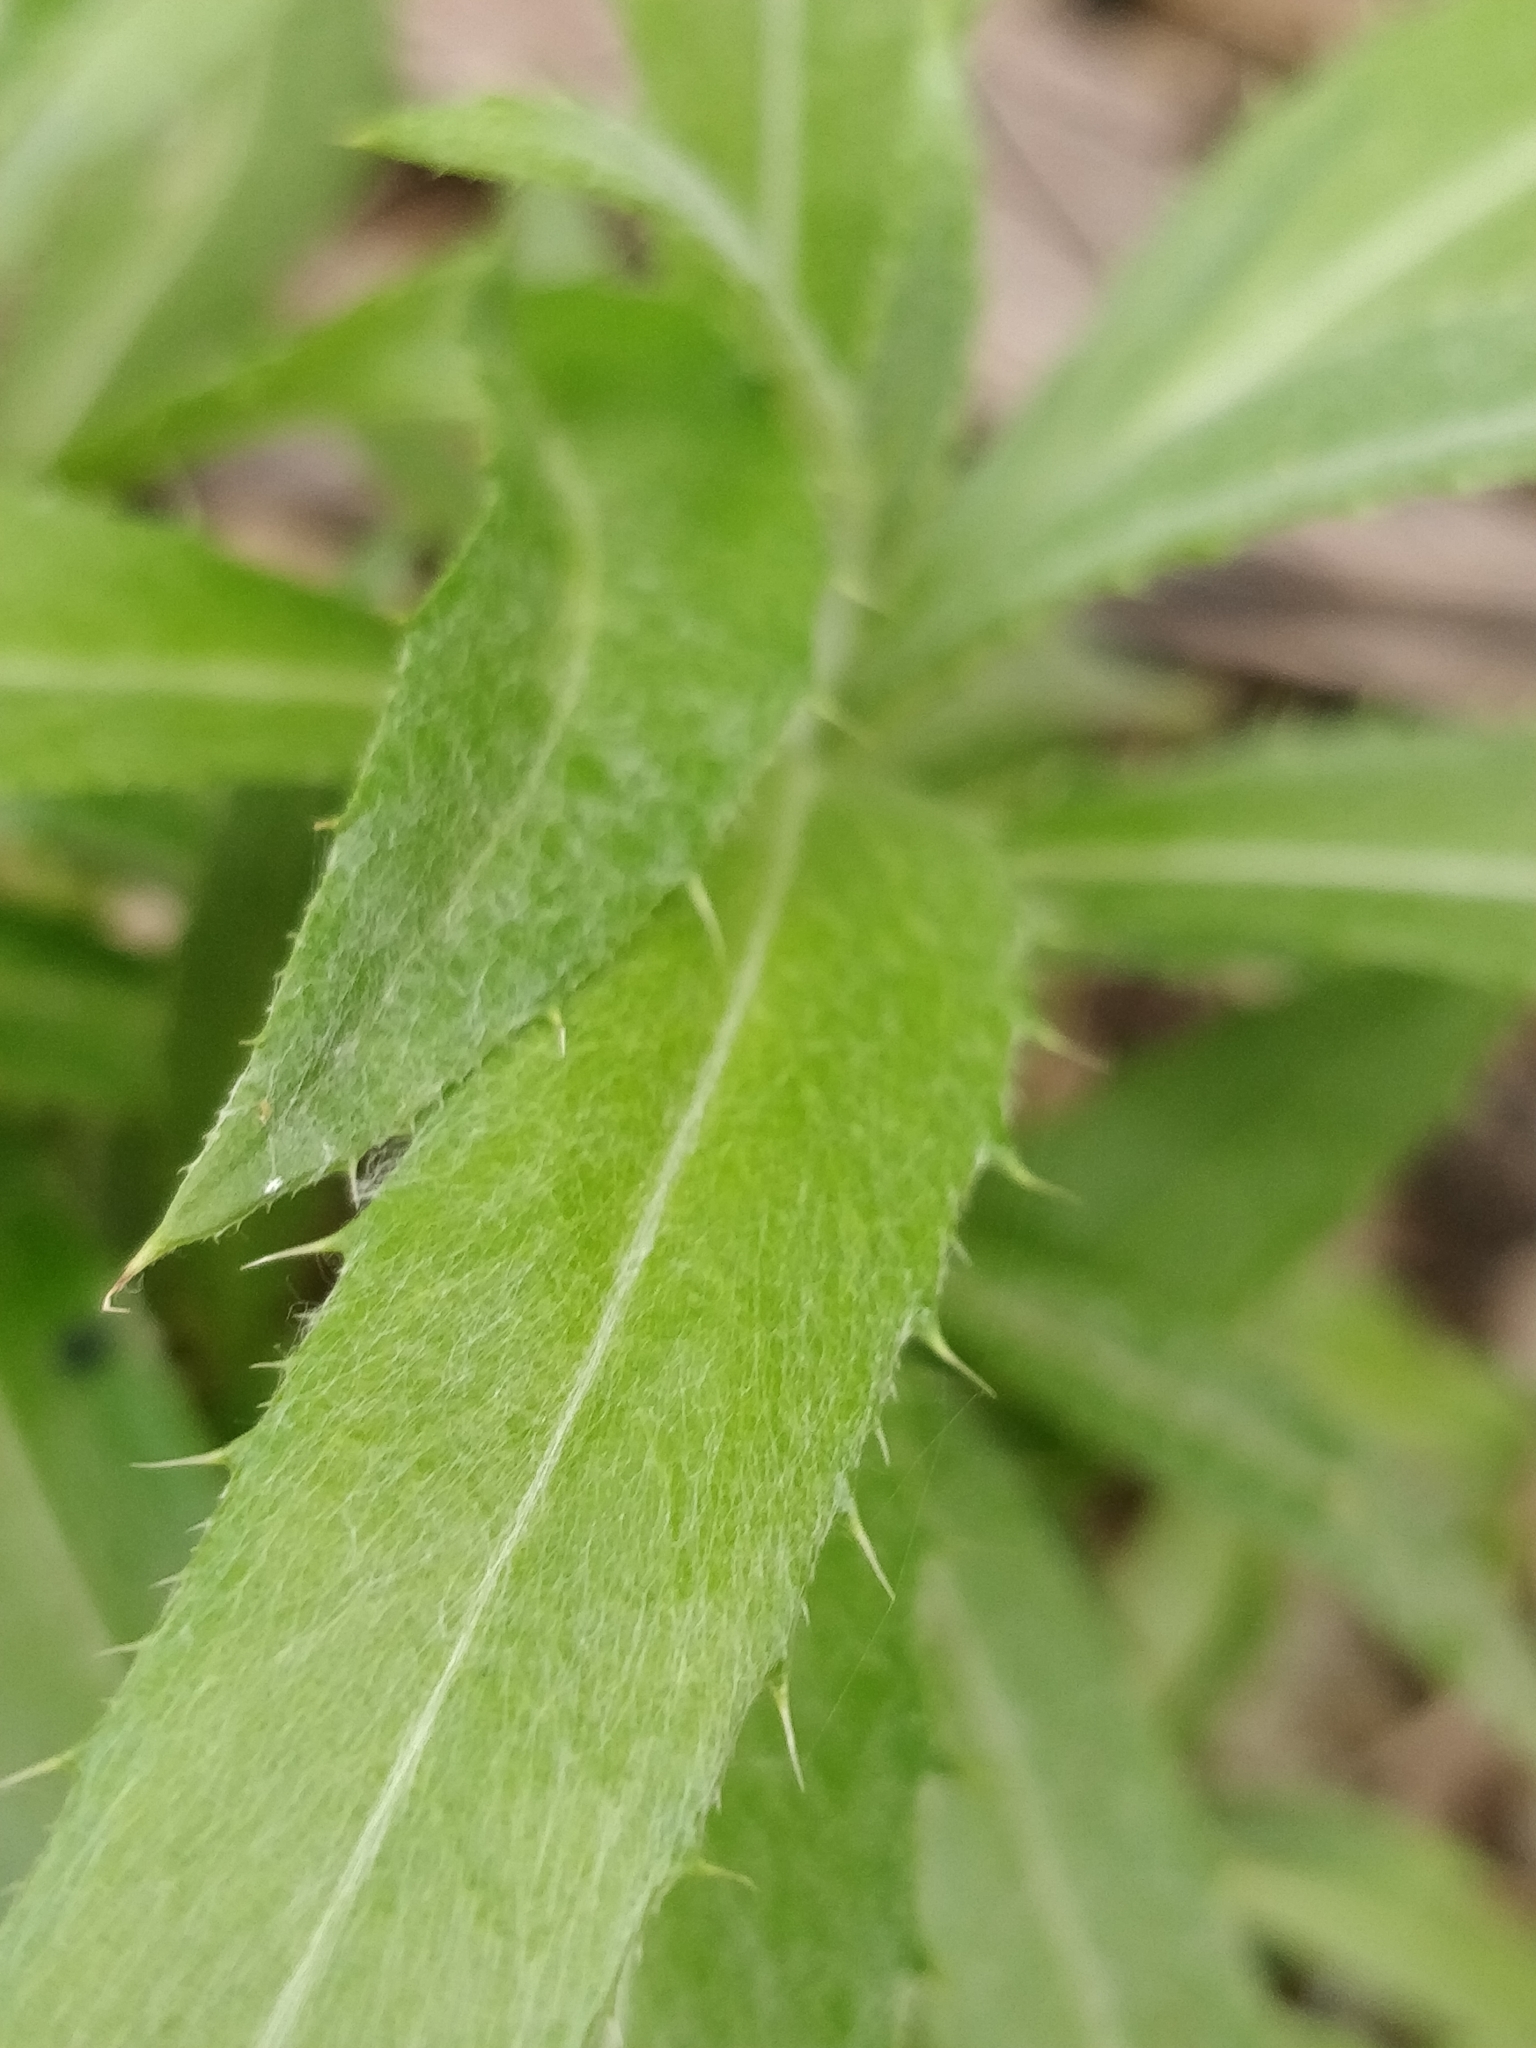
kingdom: Plantae
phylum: Tracheophyta
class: Magnoliopsida
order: Asterales
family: Asteraceae
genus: Carlina
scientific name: Carlina salicifolia
